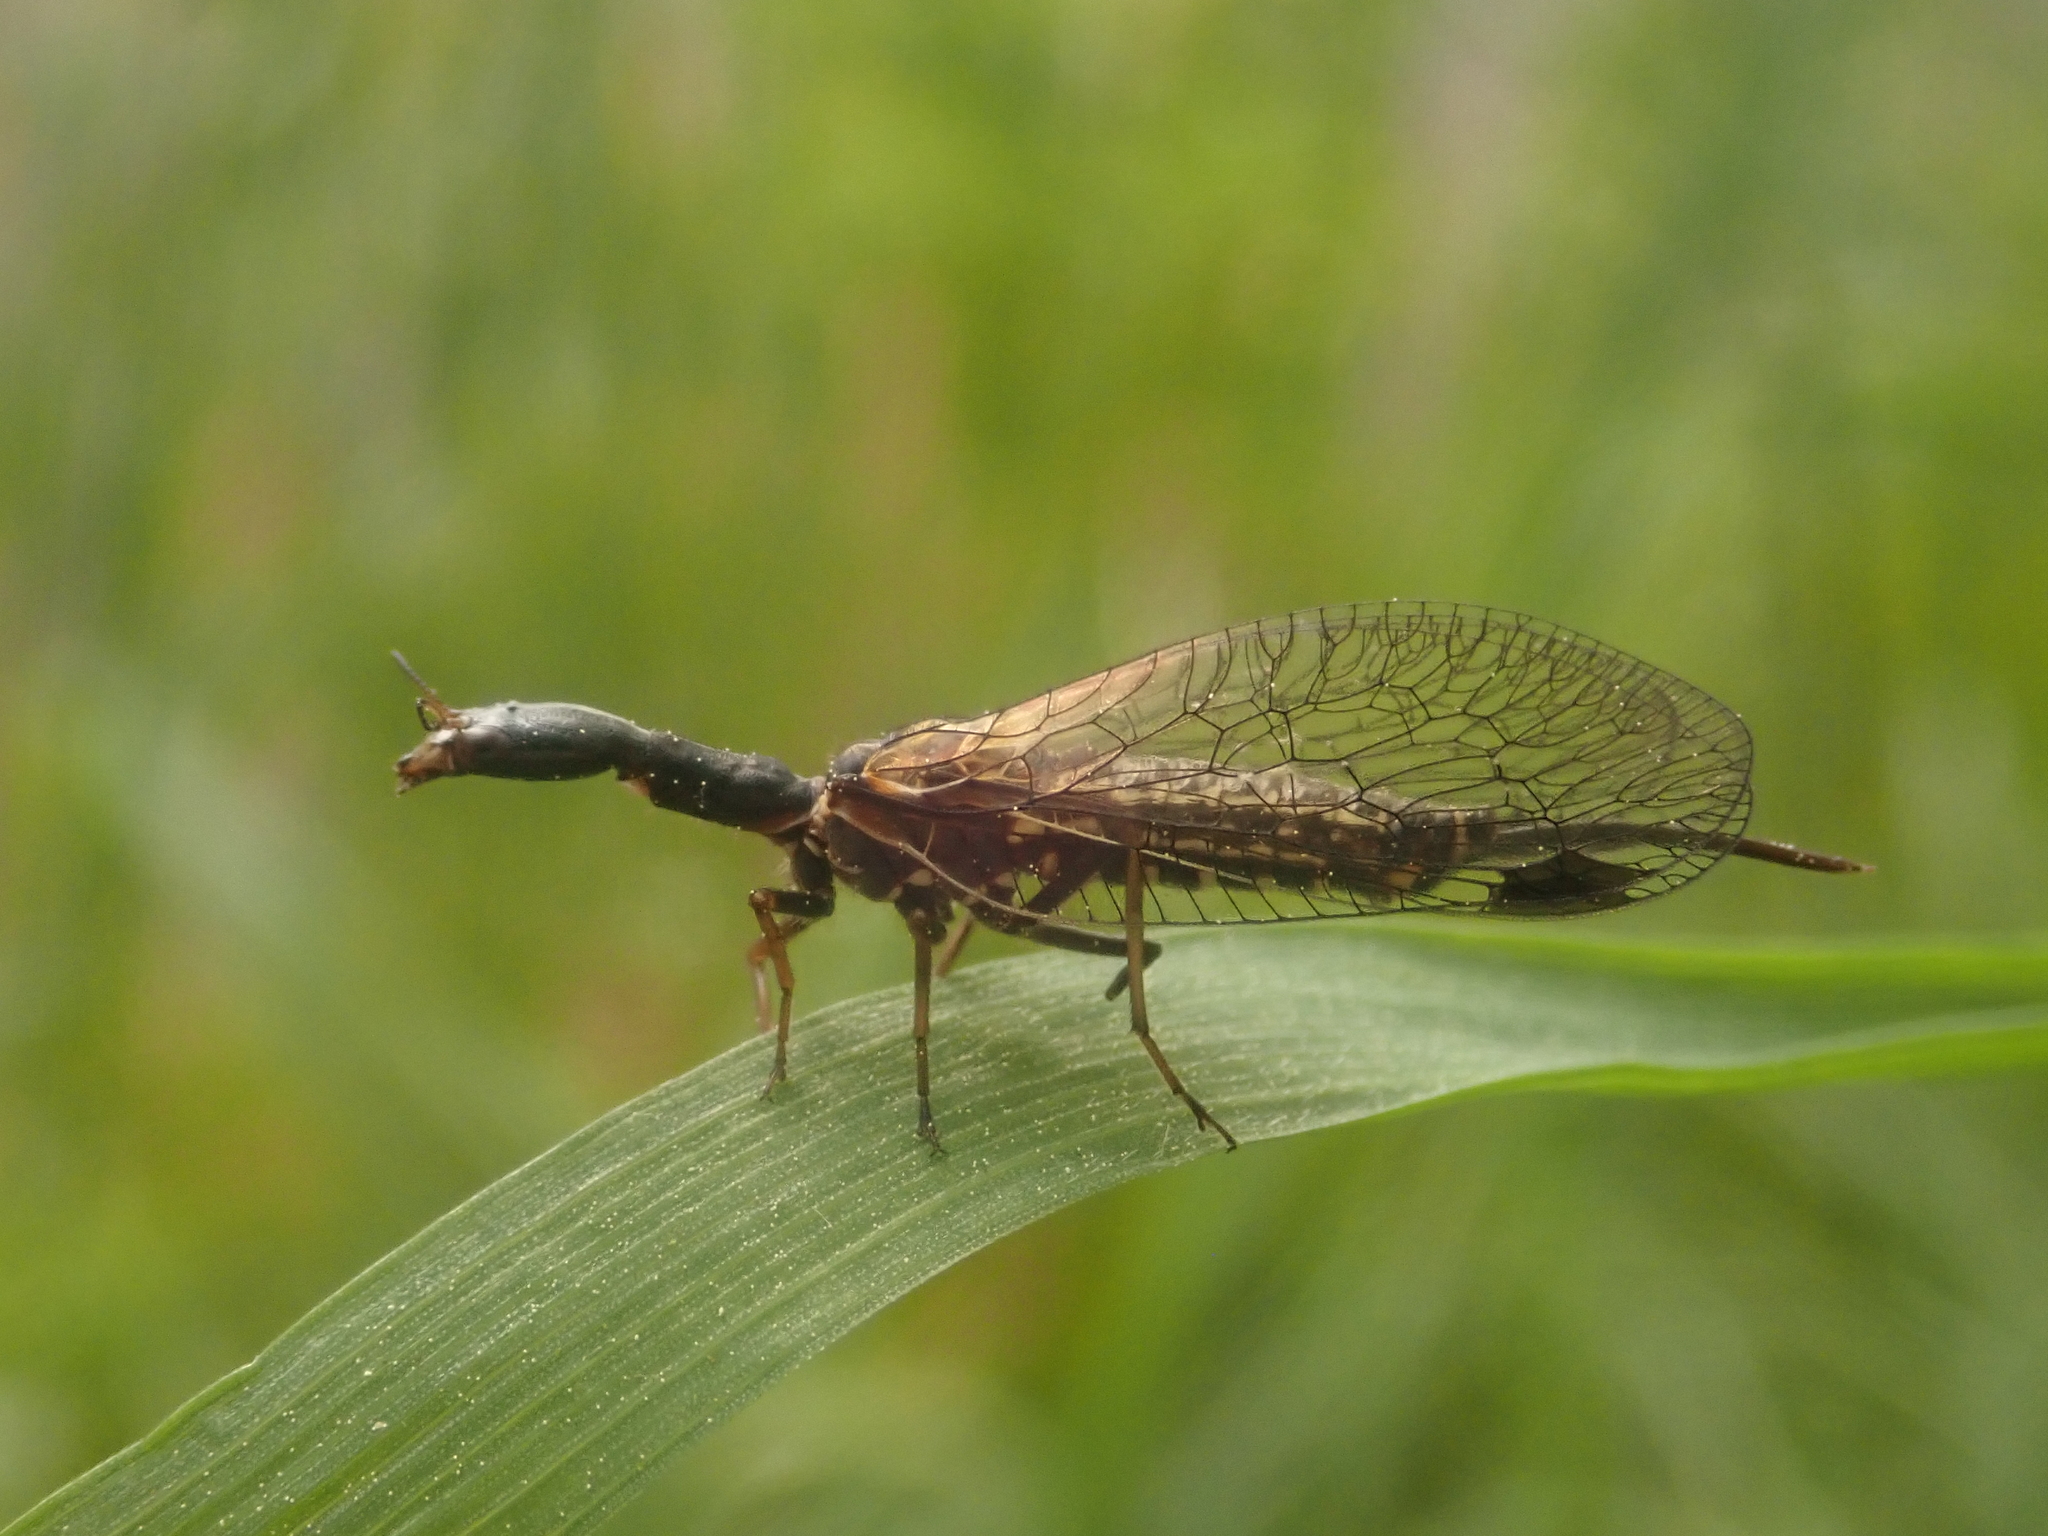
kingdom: Animalia
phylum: Arthropoda
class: Insecta
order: Raphidioptera
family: Raphidiidae
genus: Phaeostigma
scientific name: Phaeostigma notatum
